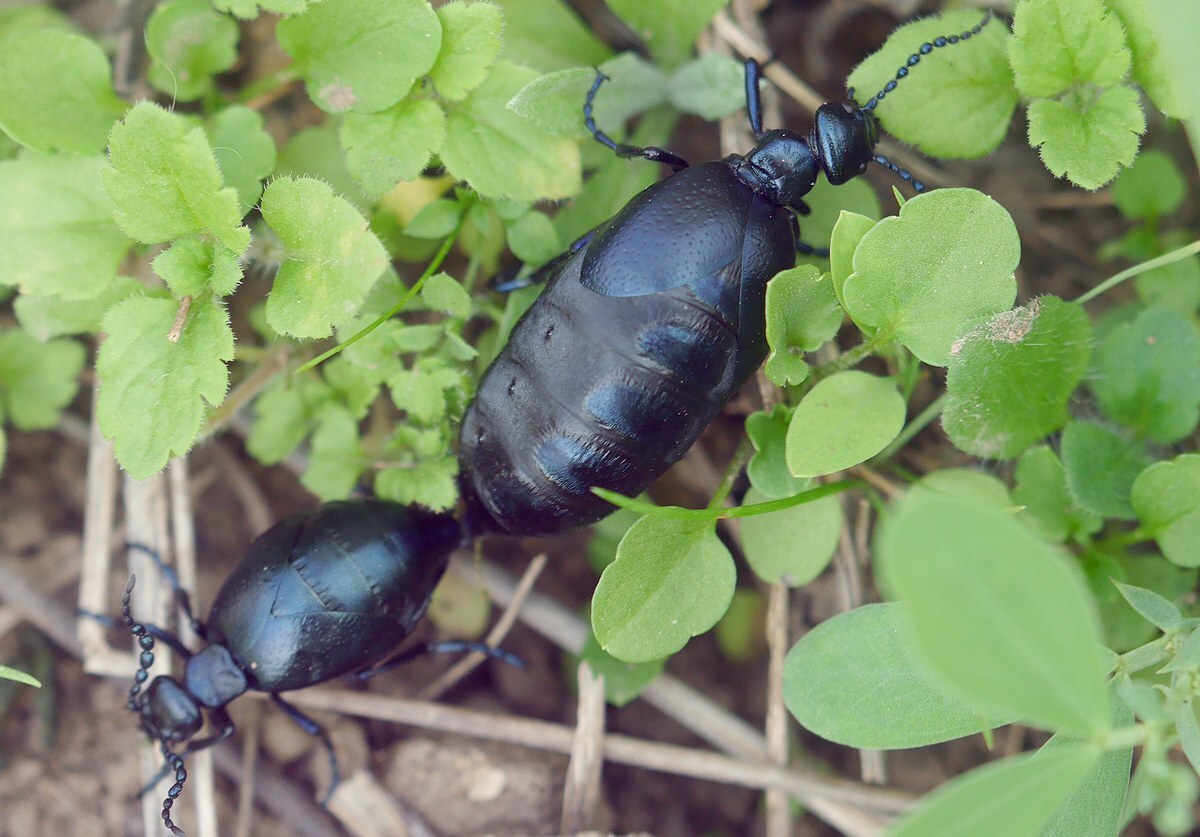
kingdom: Animalia
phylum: Arthropoda
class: Insecta
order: Coleoptera
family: Meloidae
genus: Meloe
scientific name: Meloe autumnalis
